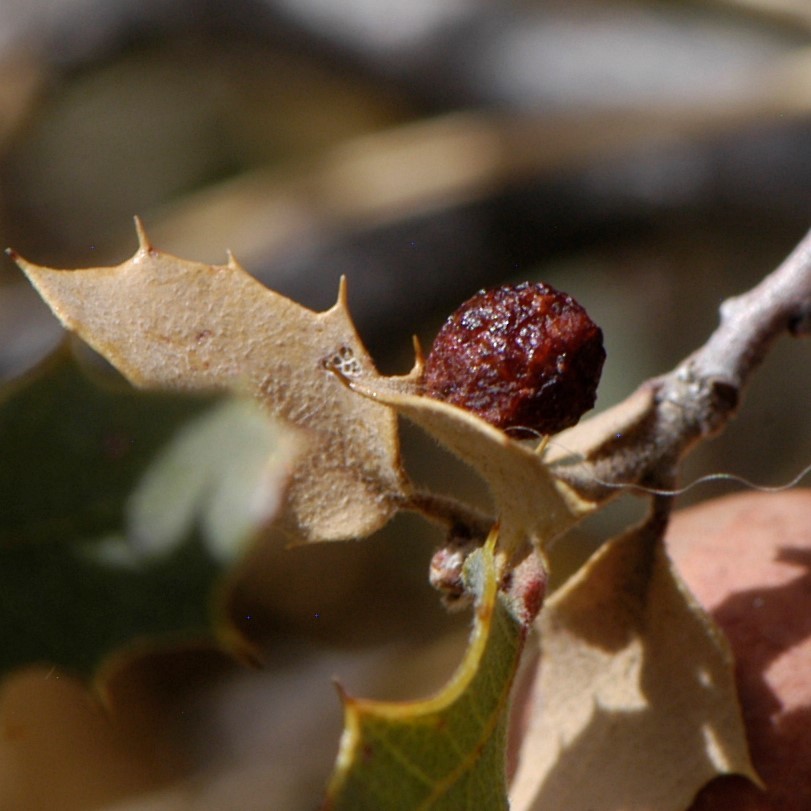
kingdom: Animalia
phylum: Arthropoda
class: Insecta
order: Hymenoptera
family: Cynipidae
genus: Atrusca
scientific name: Atrusca
